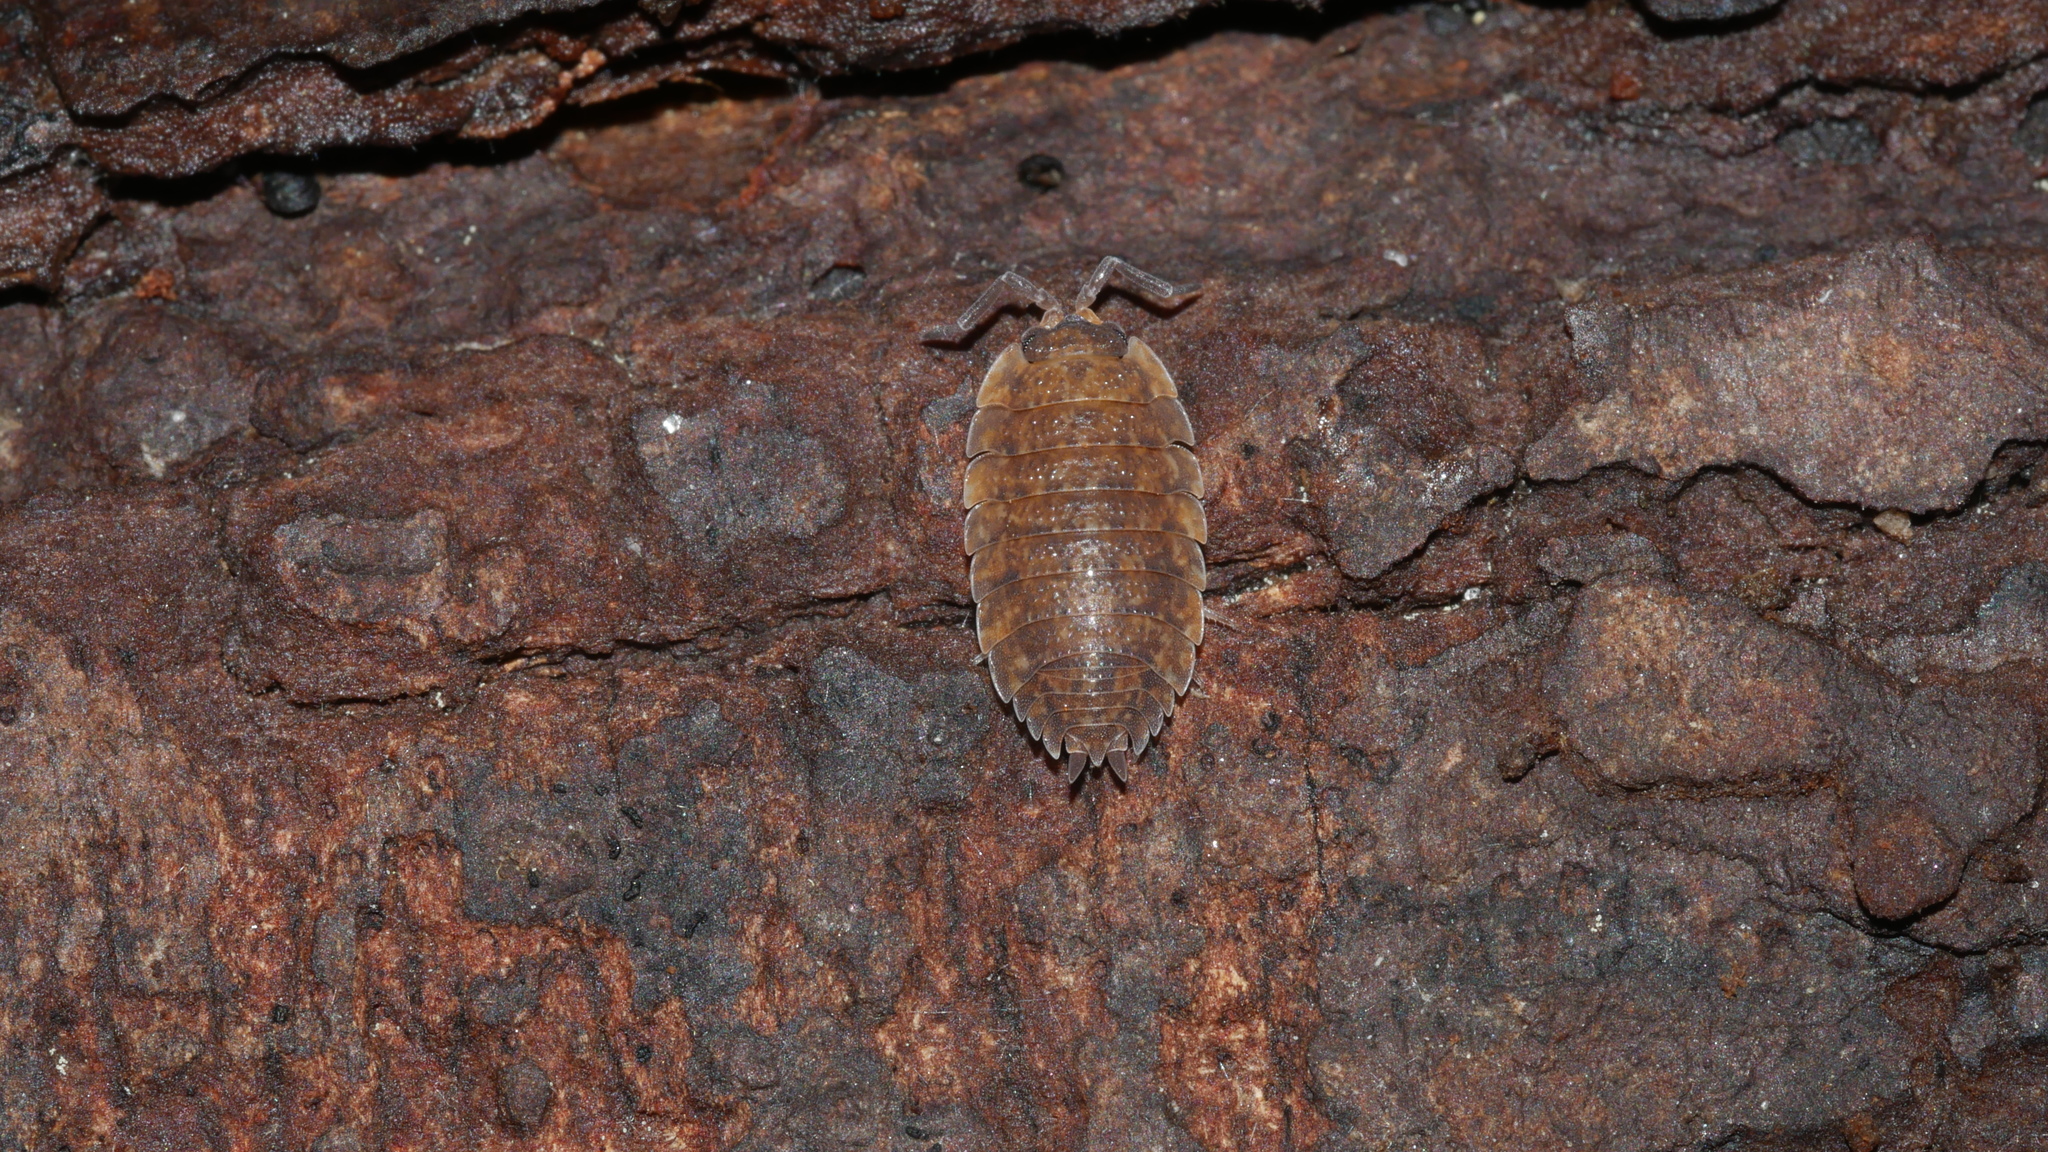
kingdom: Animalia
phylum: Arthropoda
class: Malacostraca
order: Isopoda
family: Porcellionidae
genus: Porcellio
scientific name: Porcellio scaber
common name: Common rough woodlouse
